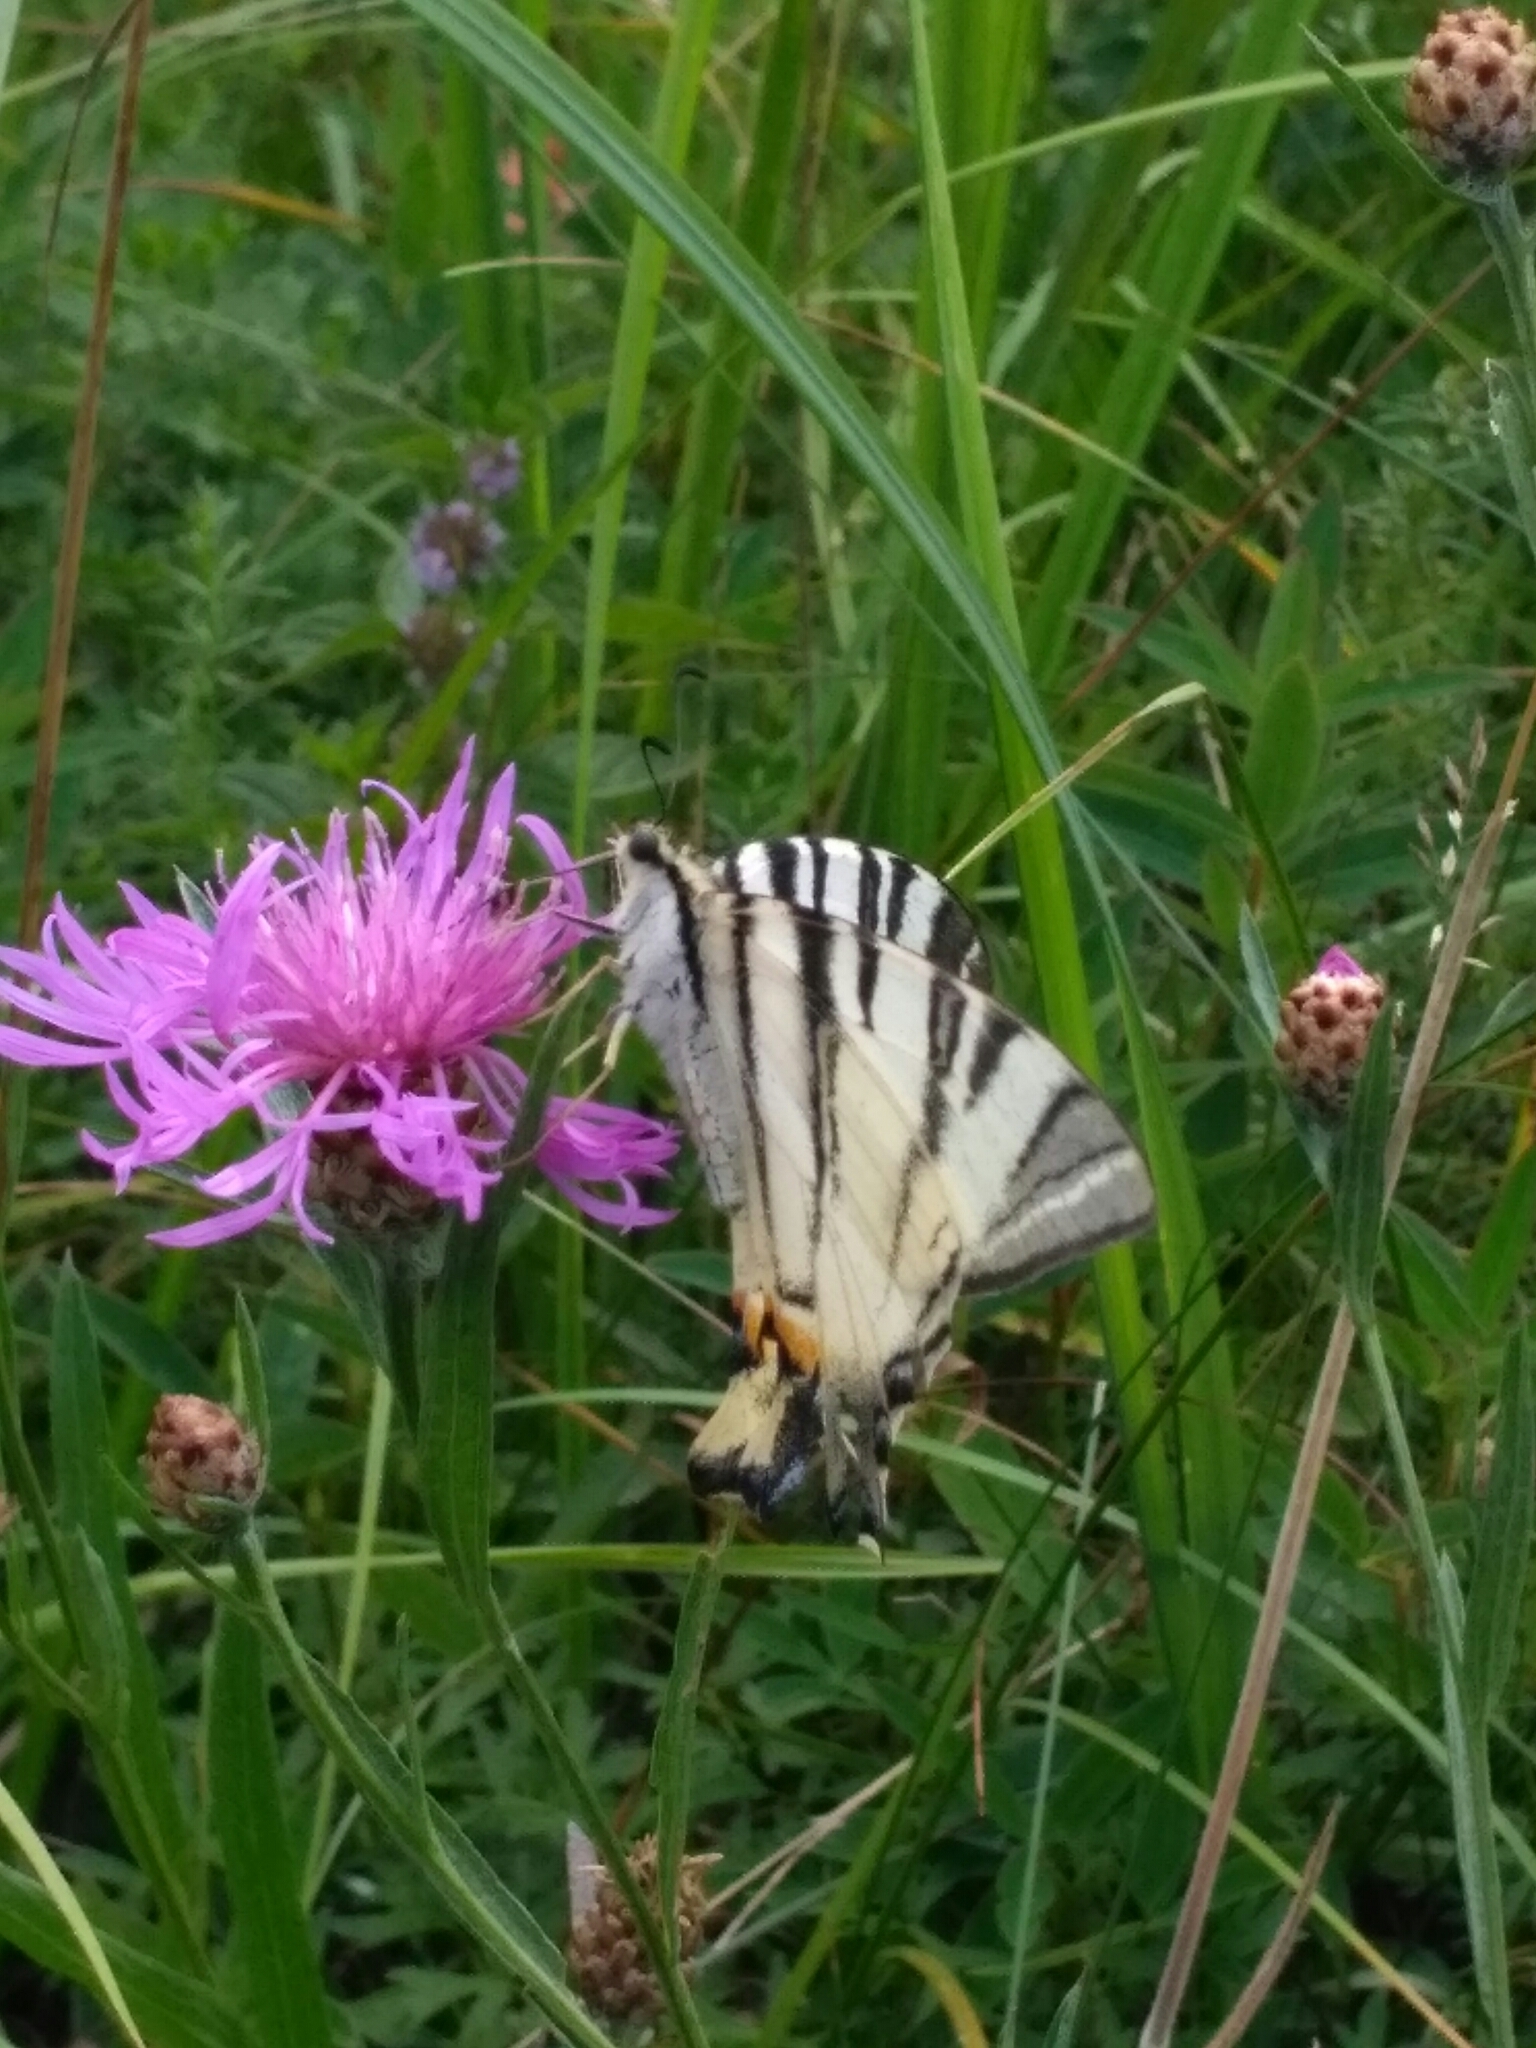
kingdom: Animalia
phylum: Arthropoda
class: Insecta
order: Lepidoptera
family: Papilionidae
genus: Iphiclides
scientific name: Iphiclides podalirius
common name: Scarce swallowtail
